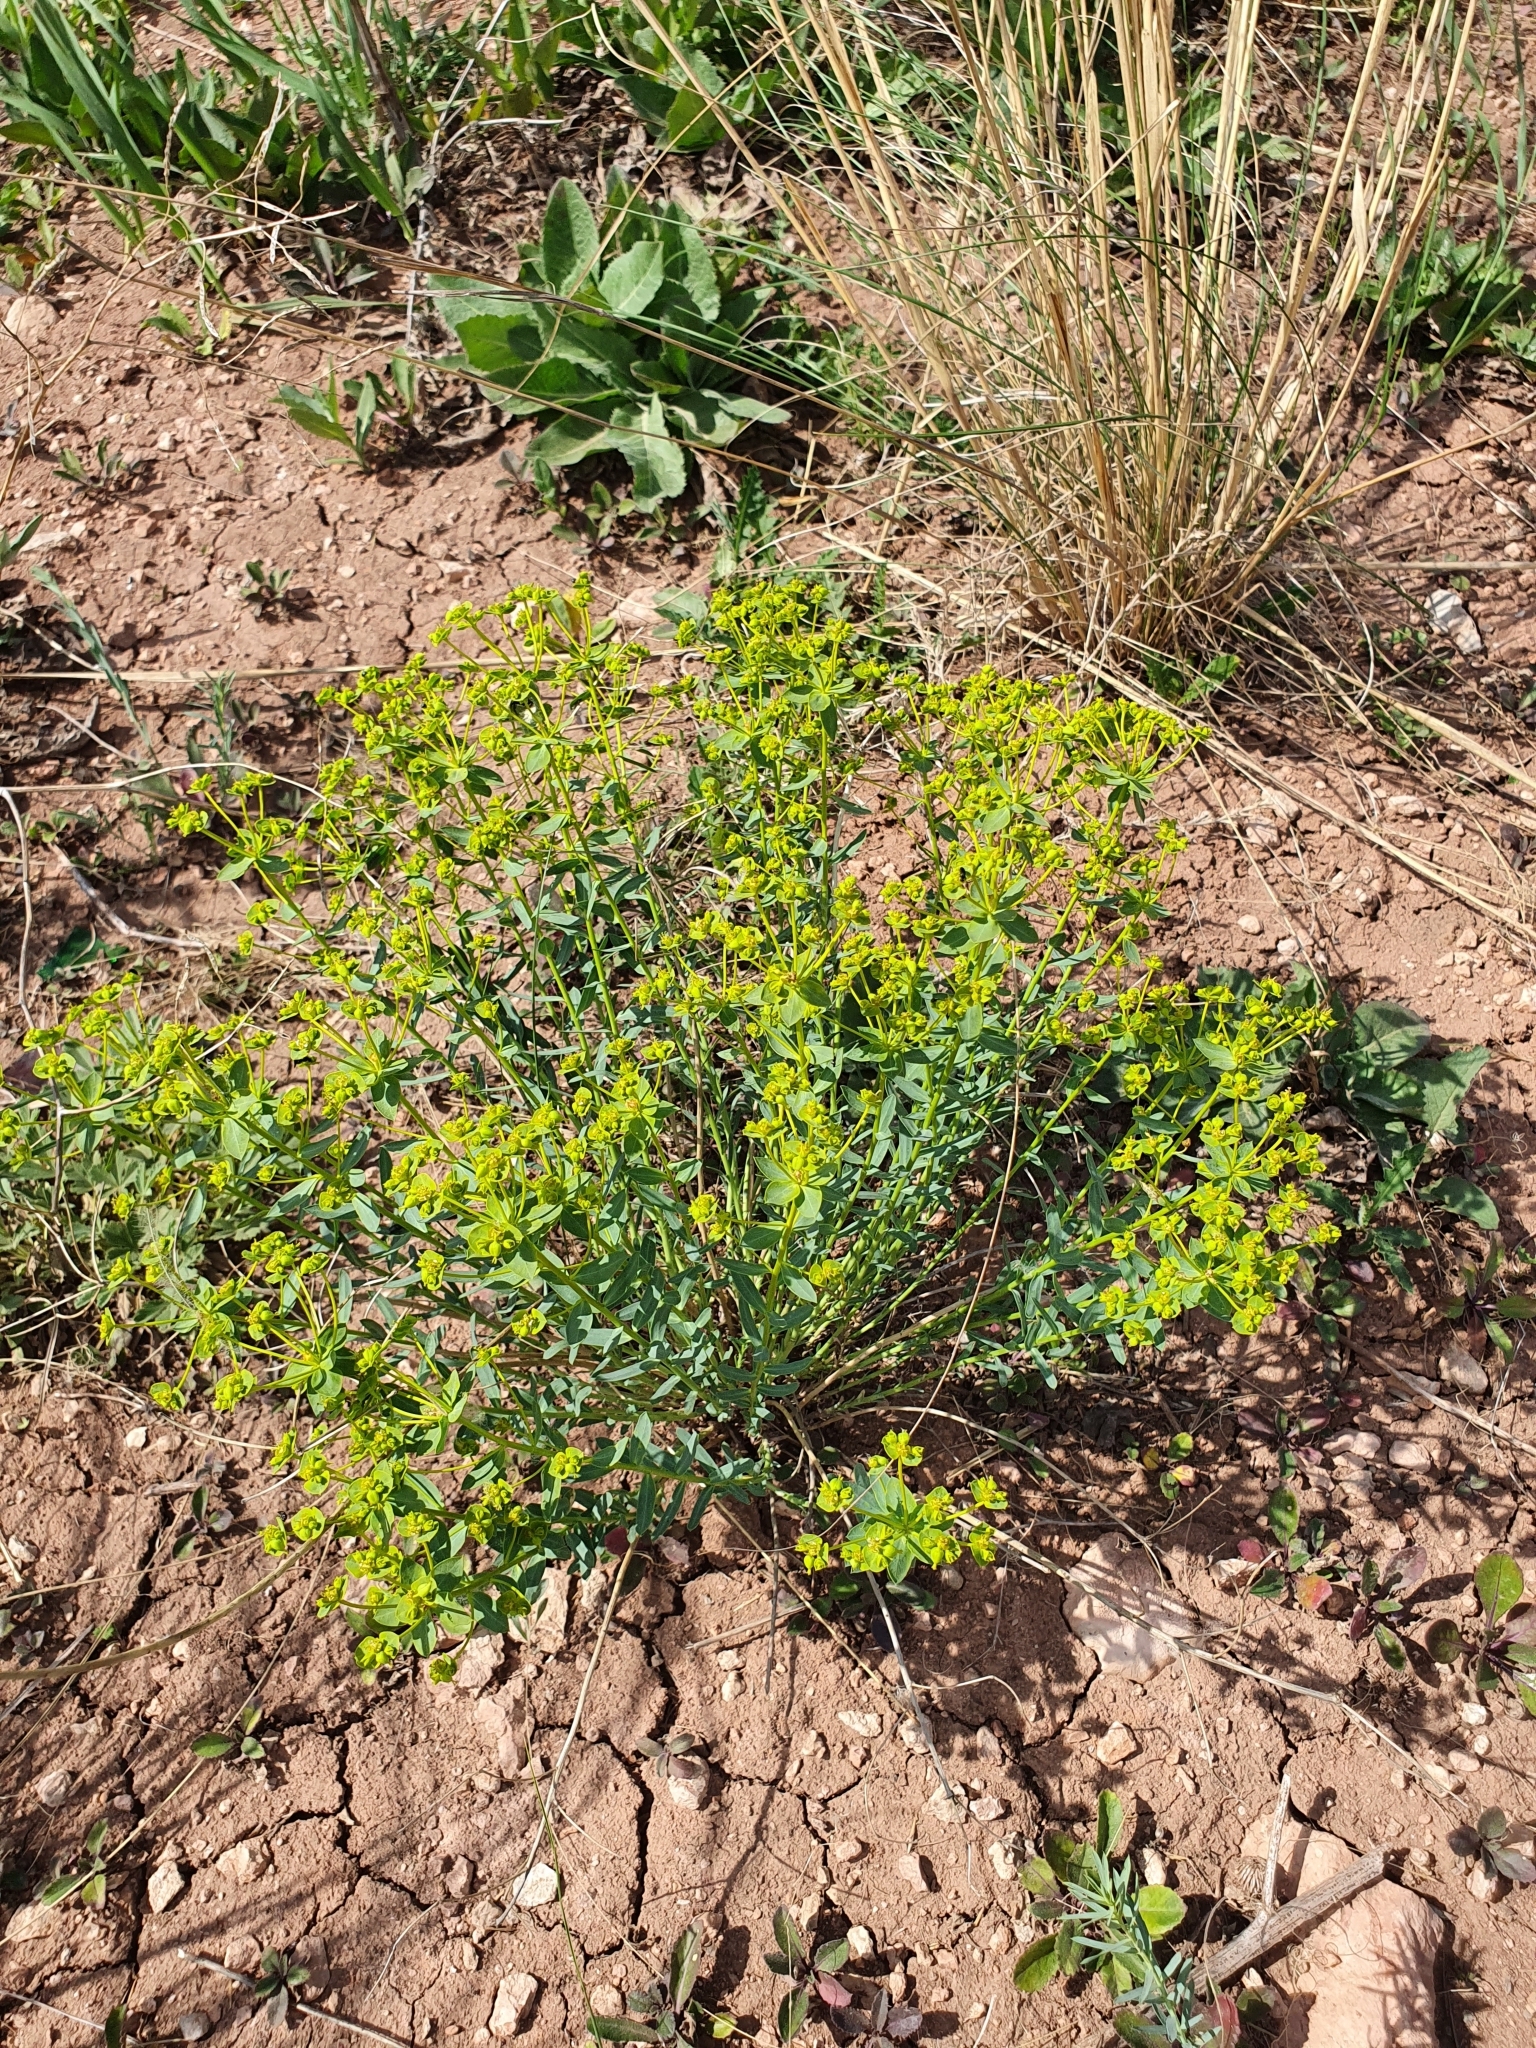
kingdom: Plantae
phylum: Tracheophyta
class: Magnoliopsida
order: Malpighiales
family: Euphorbiaceae
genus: Euphorbia
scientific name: Euphorbia seguieriana
